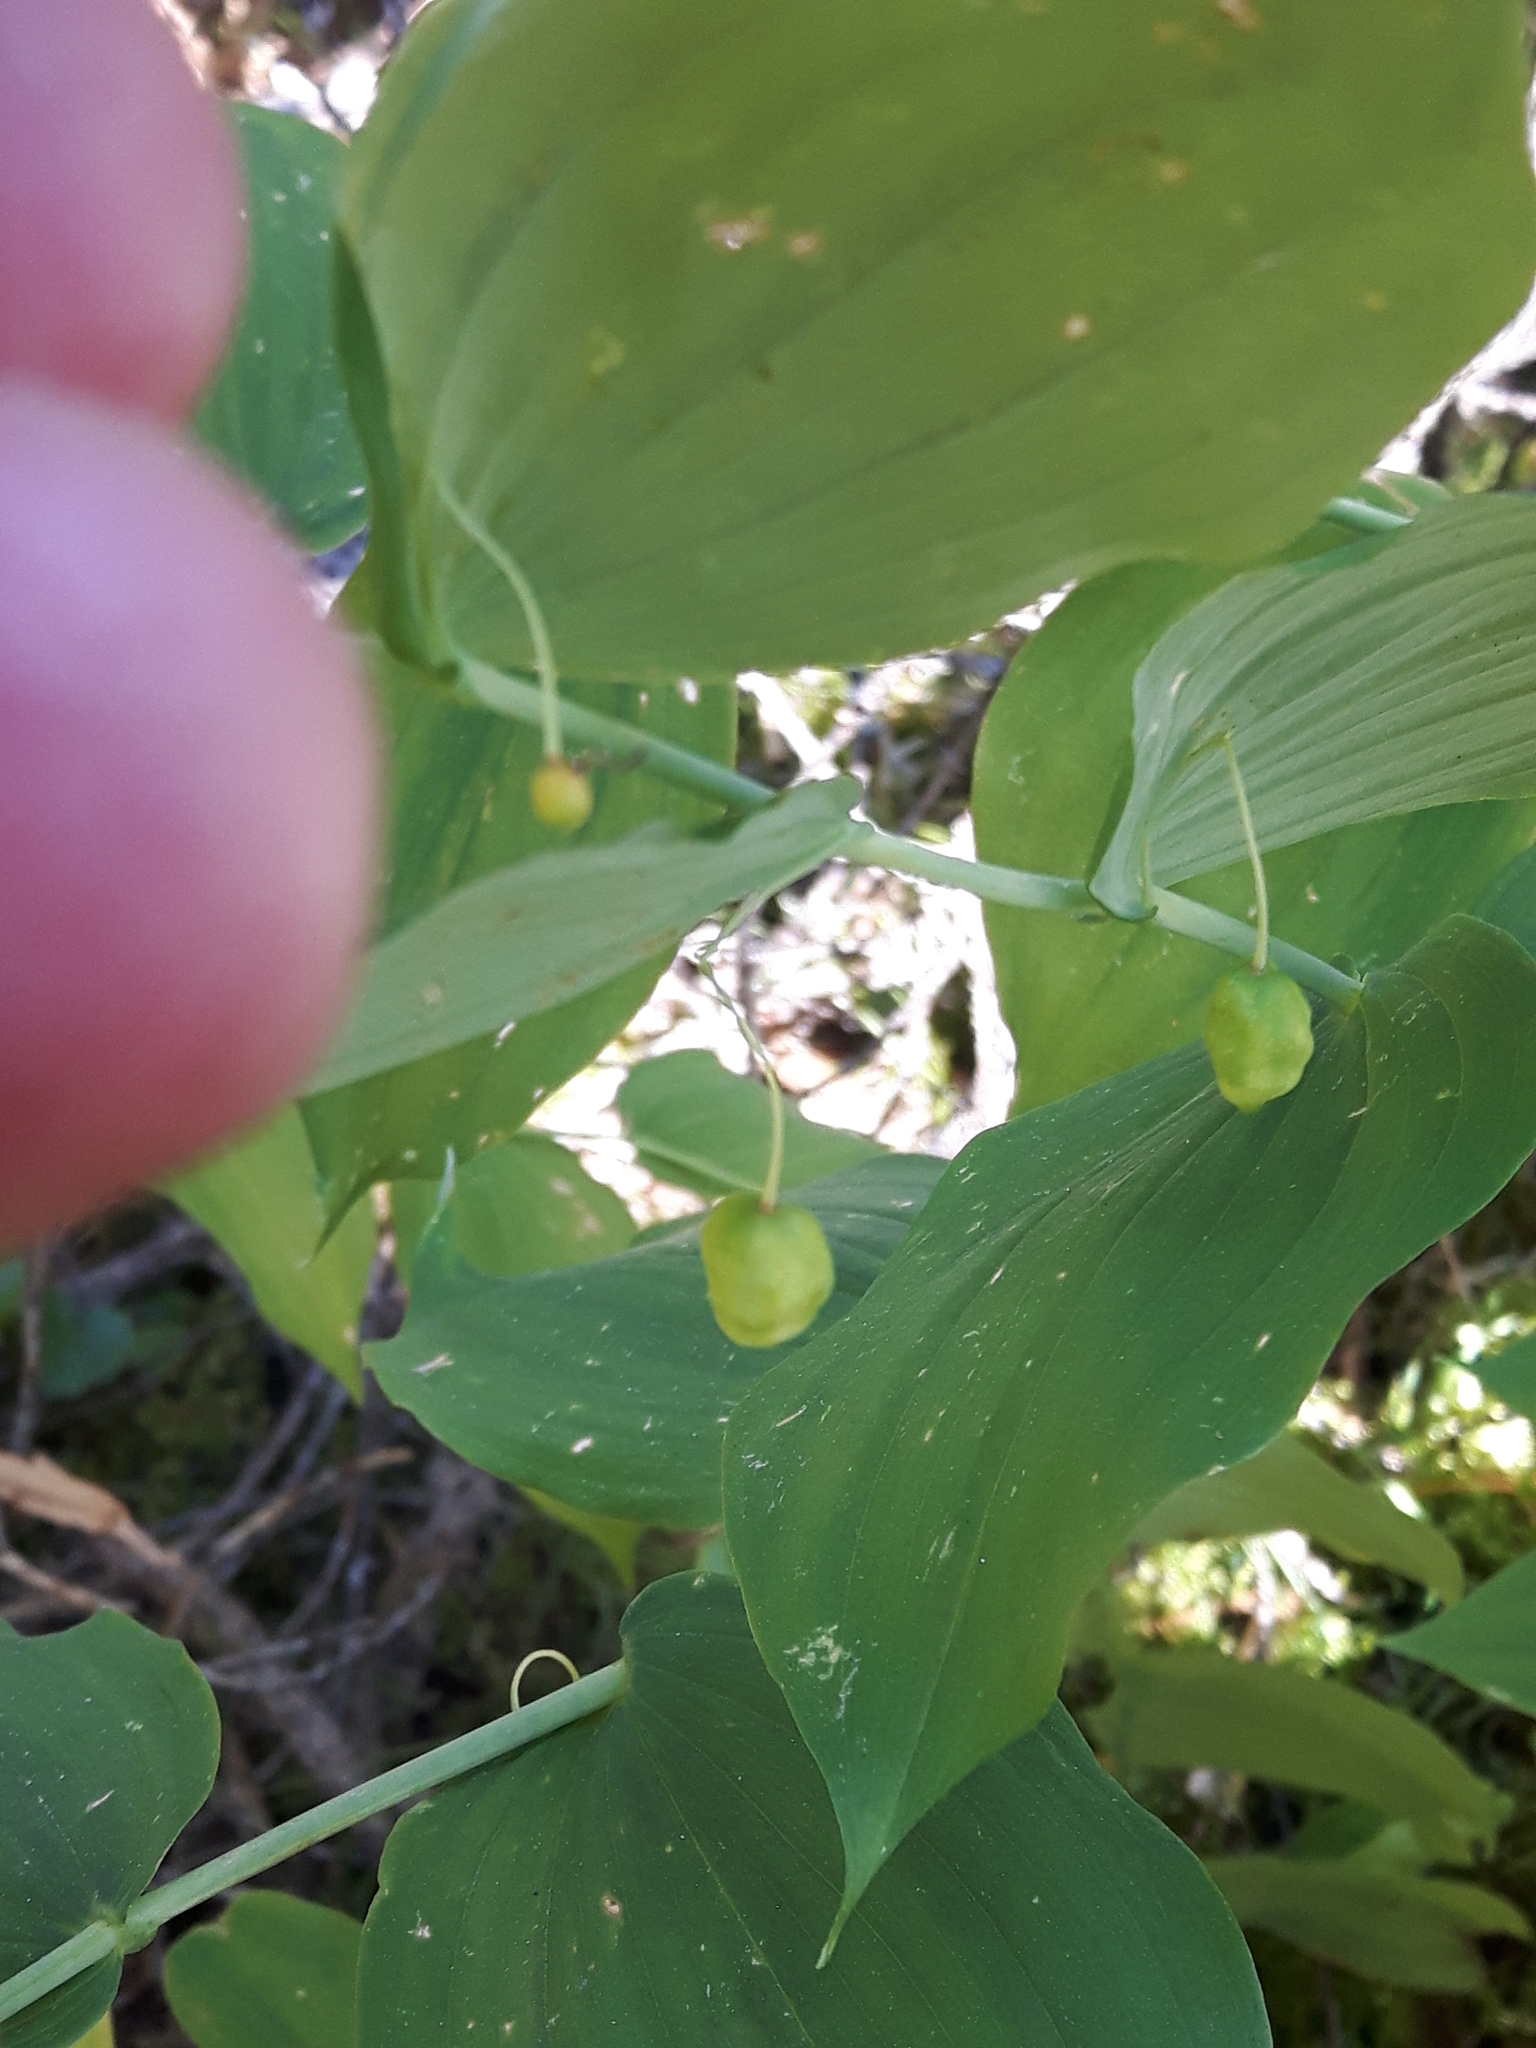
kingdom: Plantae
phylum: Tracheophyta
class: Liliopsida
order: Liliales
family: Liliaceae
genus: Streptopus
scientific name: Streptopus amplexifolius
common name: Clasp twisted stalk
